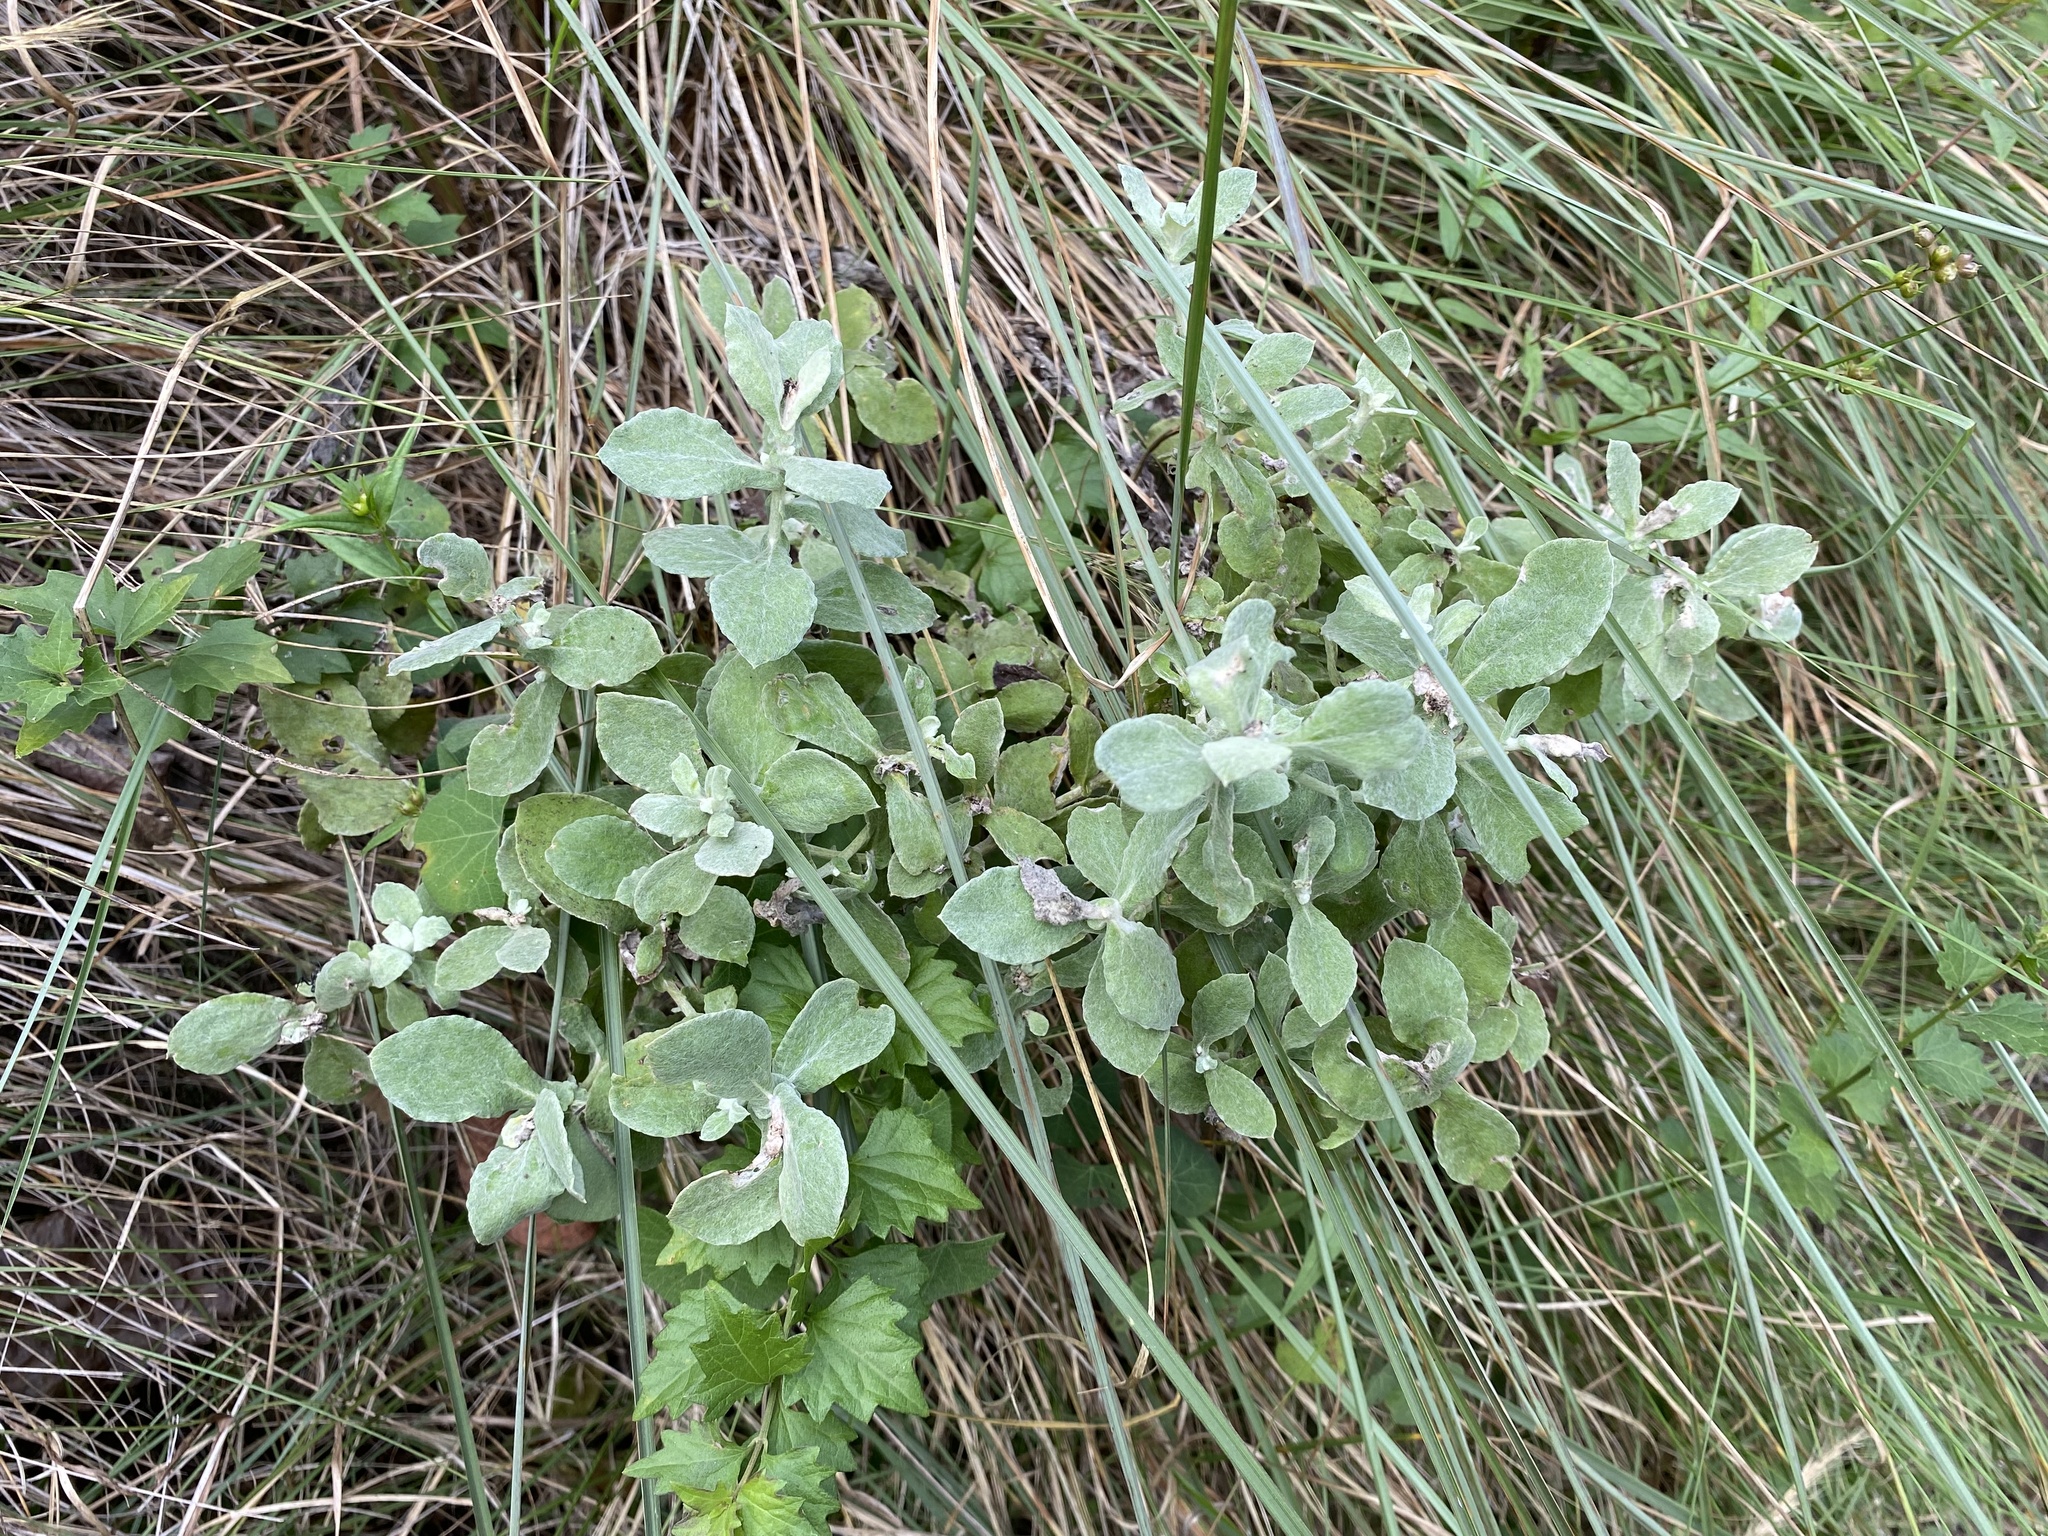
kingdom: Plantae
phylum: Tracheophyta
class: Magnoliopsida
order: Asterales
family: Asteraceae
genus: Helichrysum
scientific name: Helichrysum panduratum
